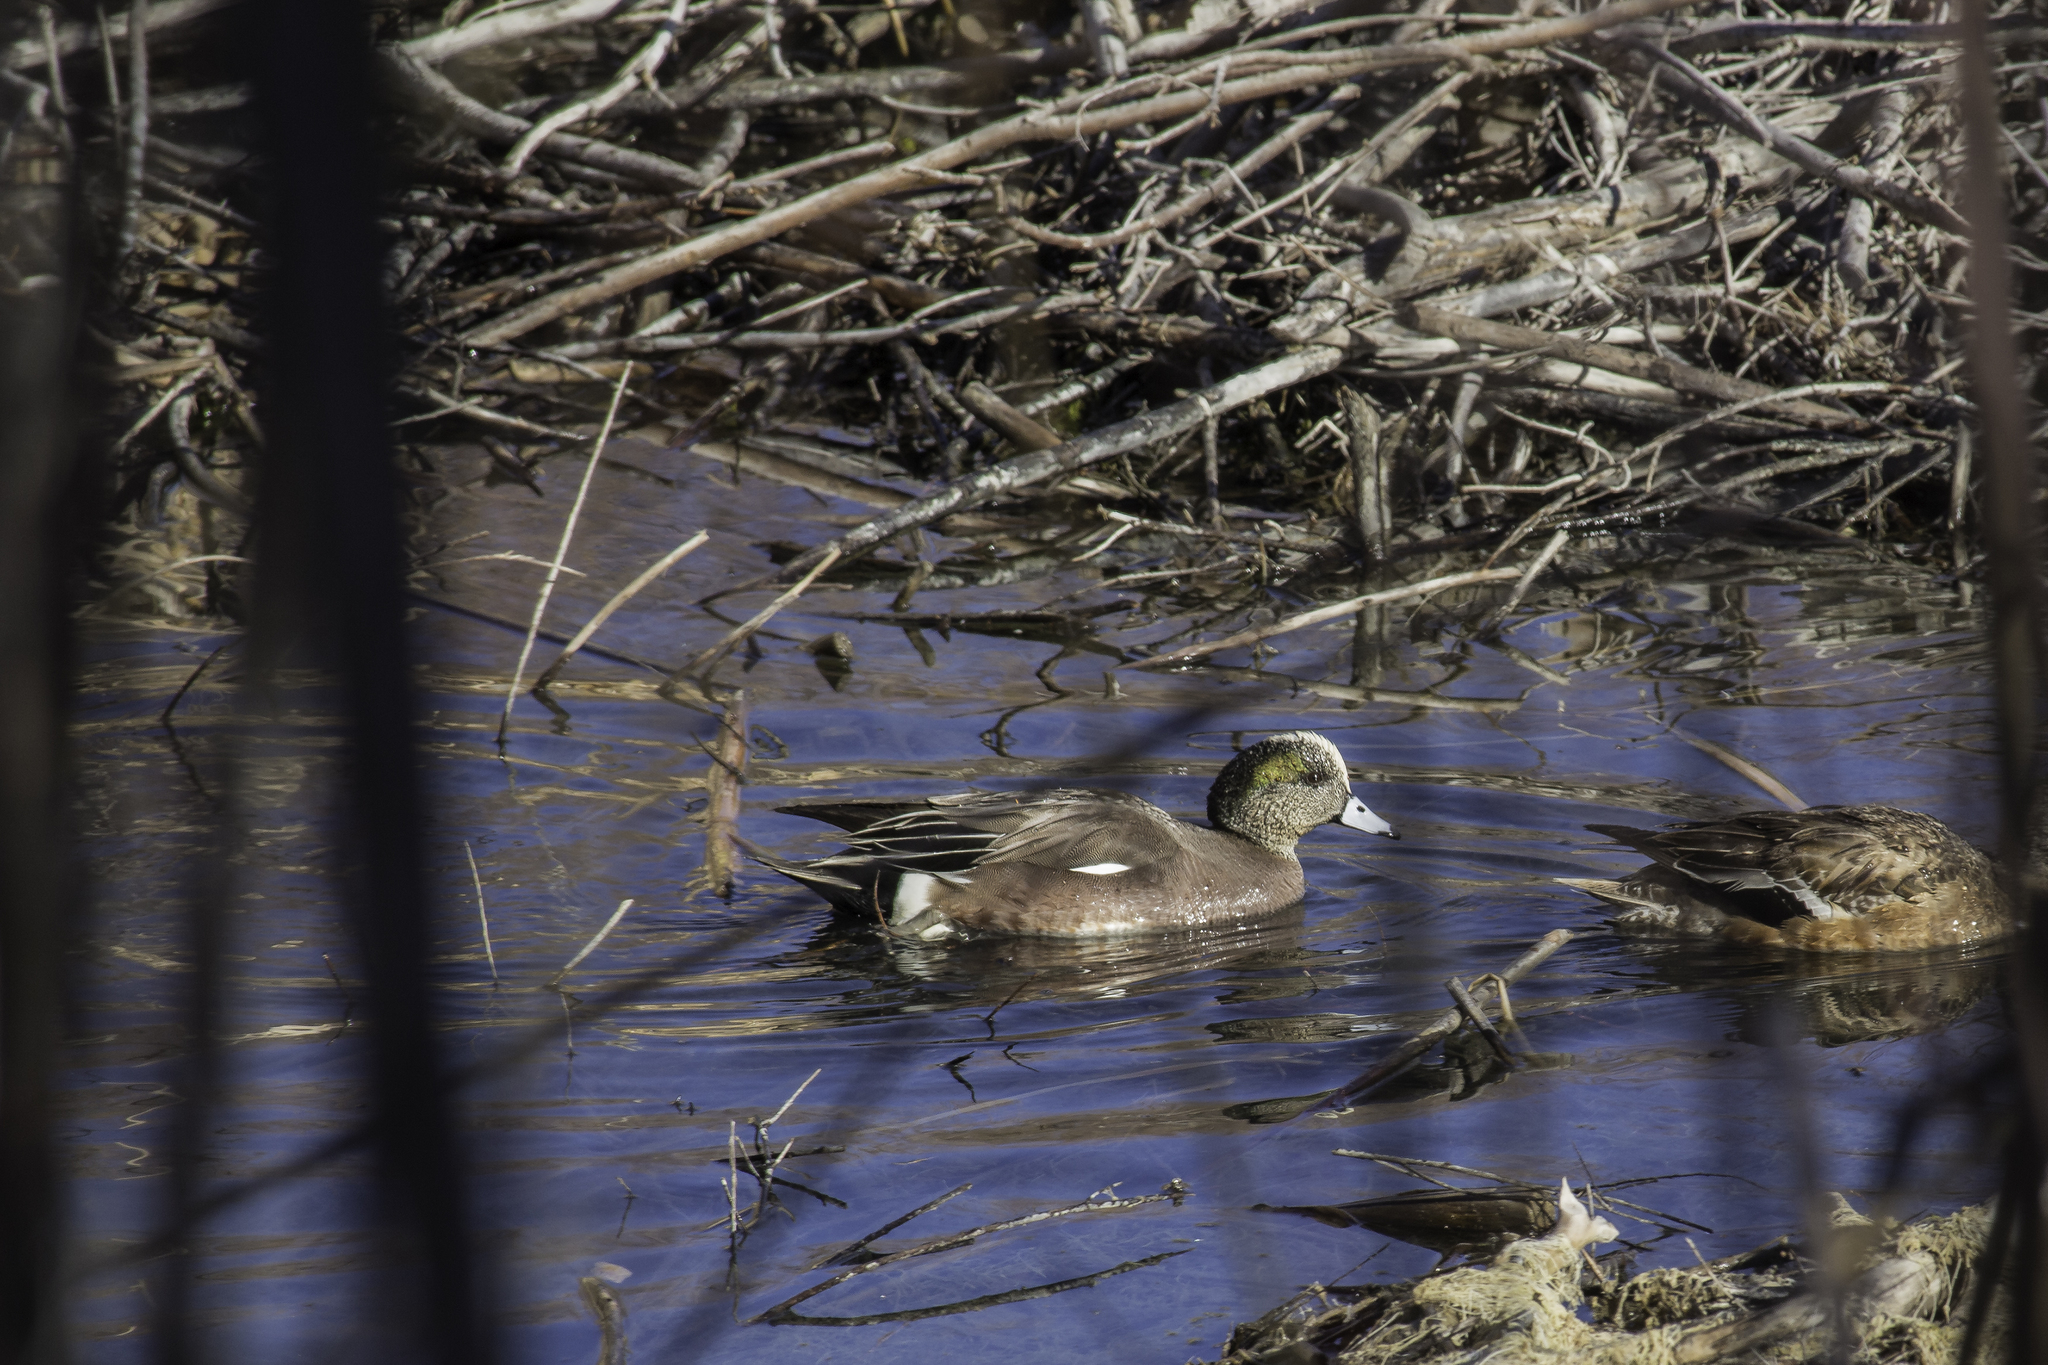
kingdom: Animalia
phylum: Chordata
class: Aves
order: Anseriformes
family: Anatidae
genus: Mareca
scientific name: Mareca americana
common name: American wigeon
